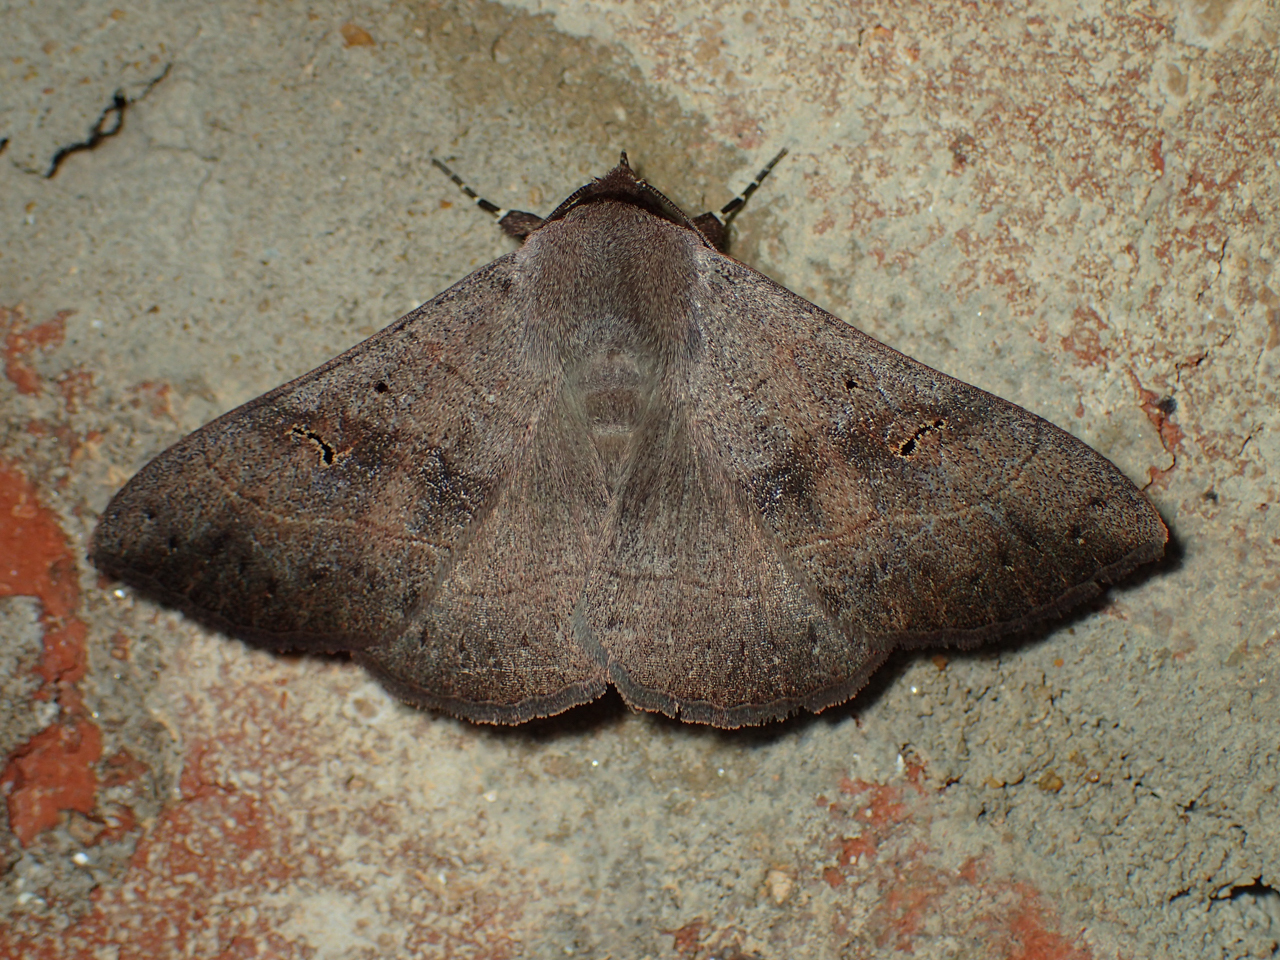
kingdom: Animalia
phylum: Arthropoda
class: Insecta
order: Lepidoptera
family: Erebidae
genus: Panopoda
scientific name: Panopoda carneicosta
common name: Brown panopoda moth
